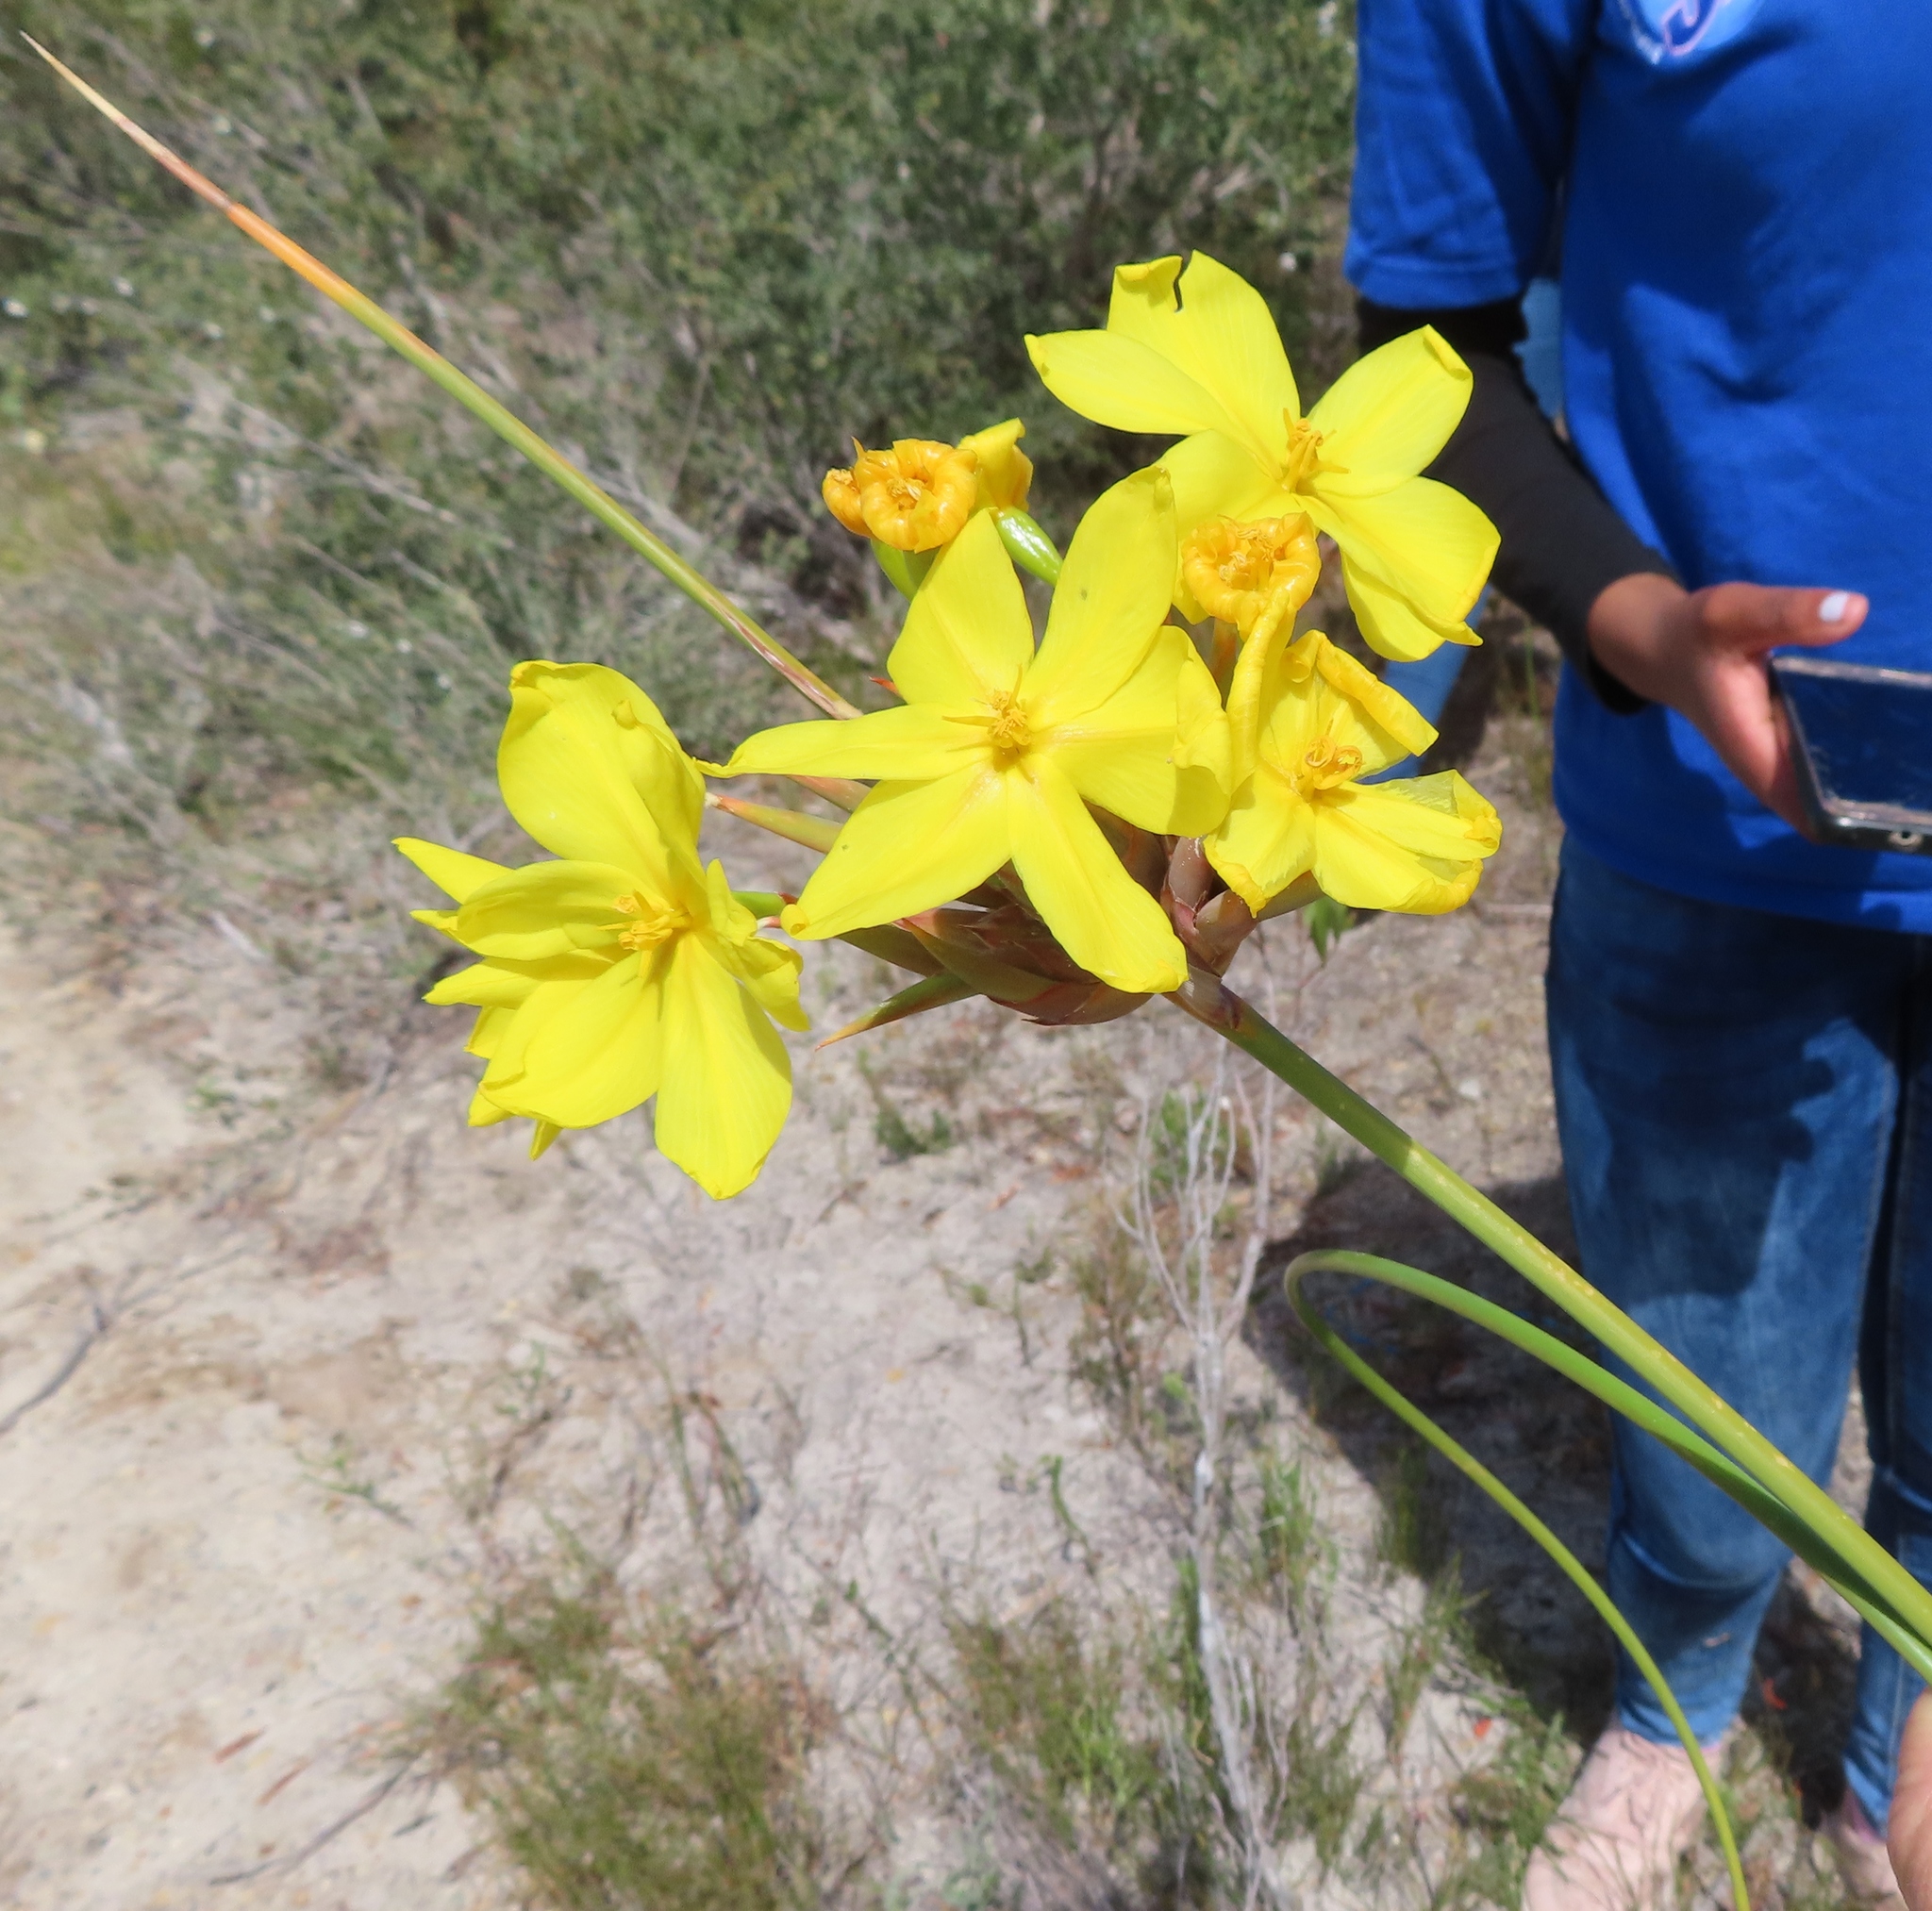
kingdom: Plantae
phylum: Tracheophyta
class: Liliopsida
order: Asparagales
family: Iridaceae
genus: Bobartia
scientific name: Bobartia longicyma
